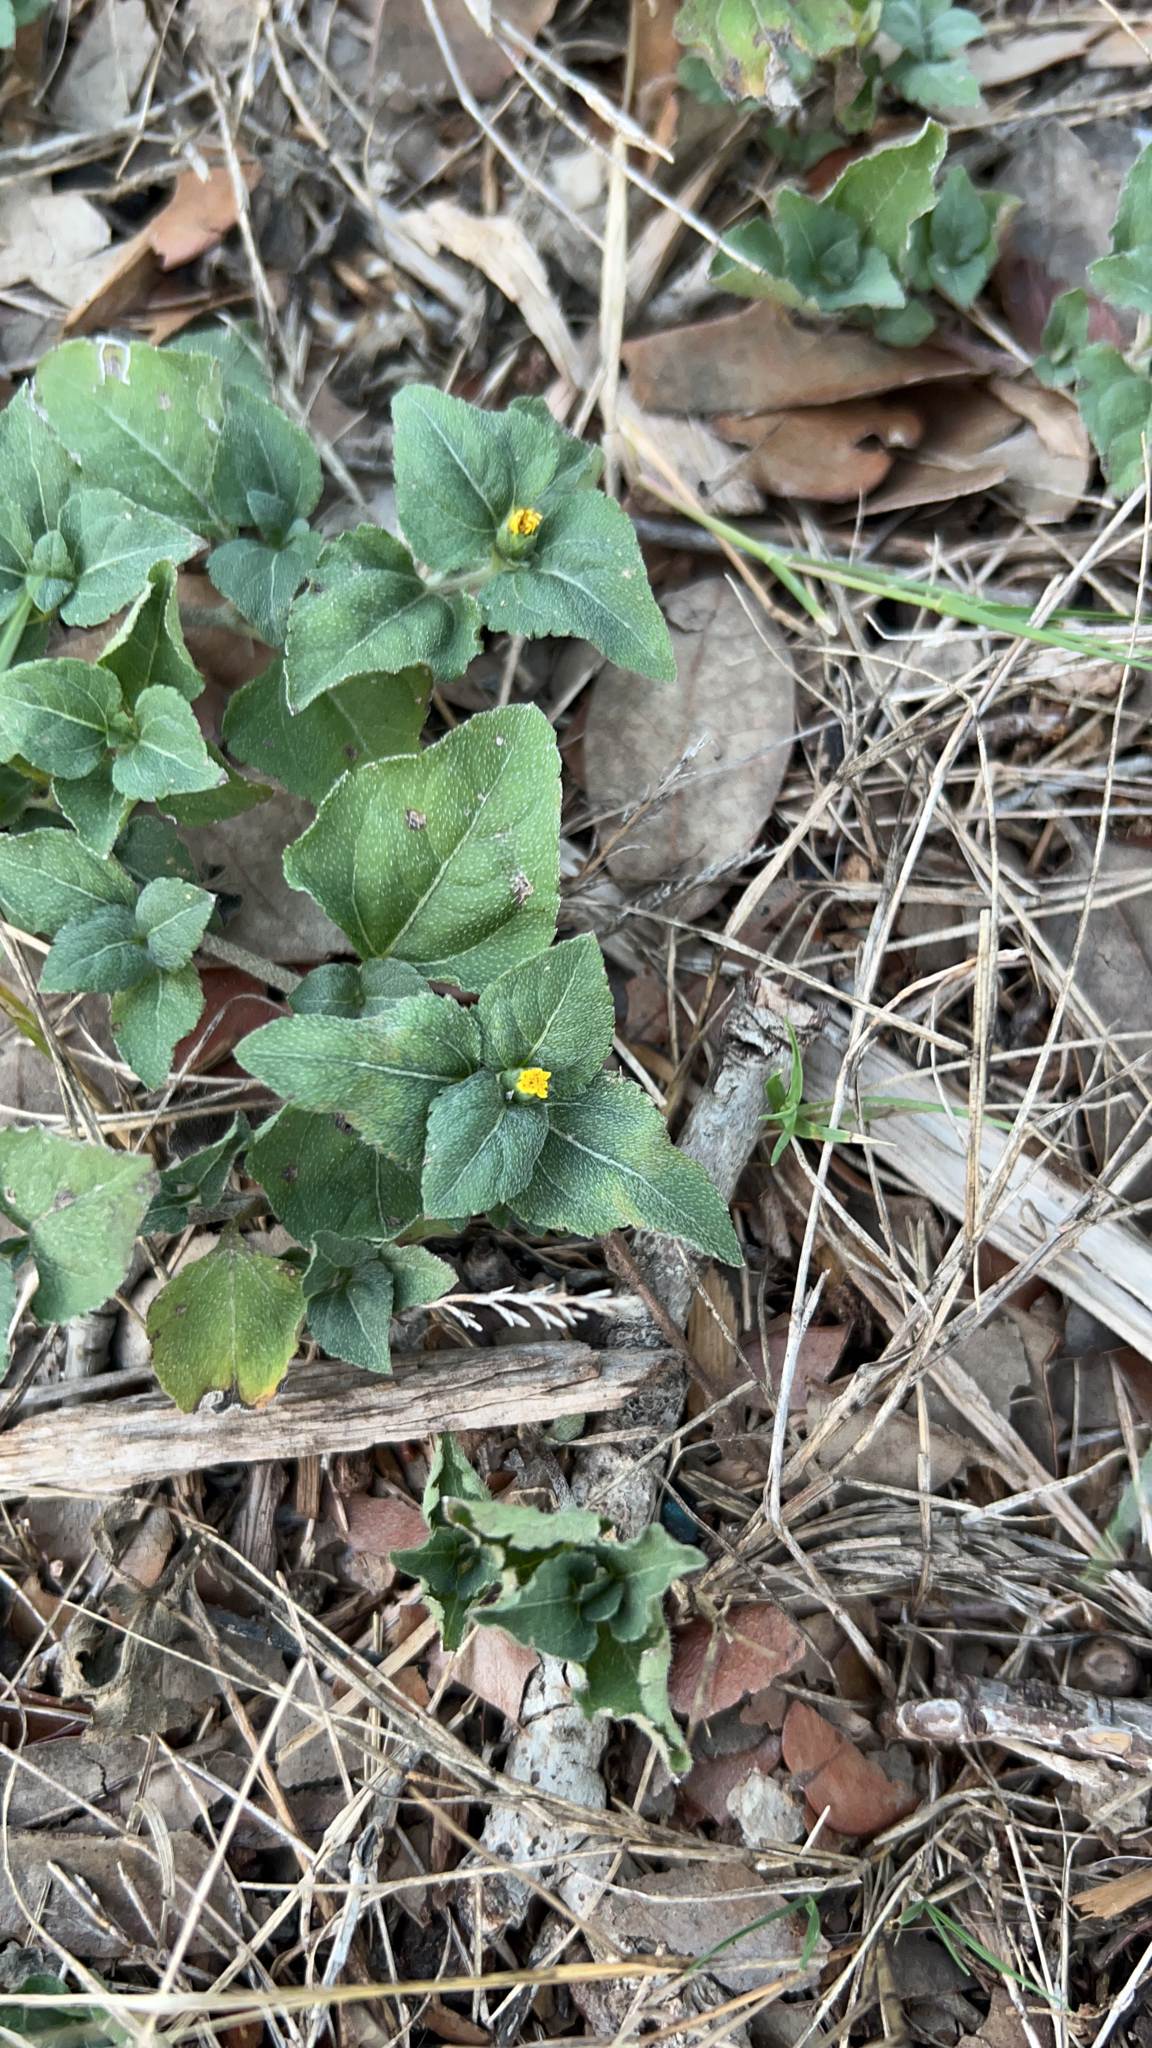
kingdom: Plantae
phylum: Tracheophyta
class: Magnoliopsida
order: Asterales
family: Asteraceae
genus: Calyptocarpus
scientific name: Calyptocarpus vialis
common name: Straggler daisy
